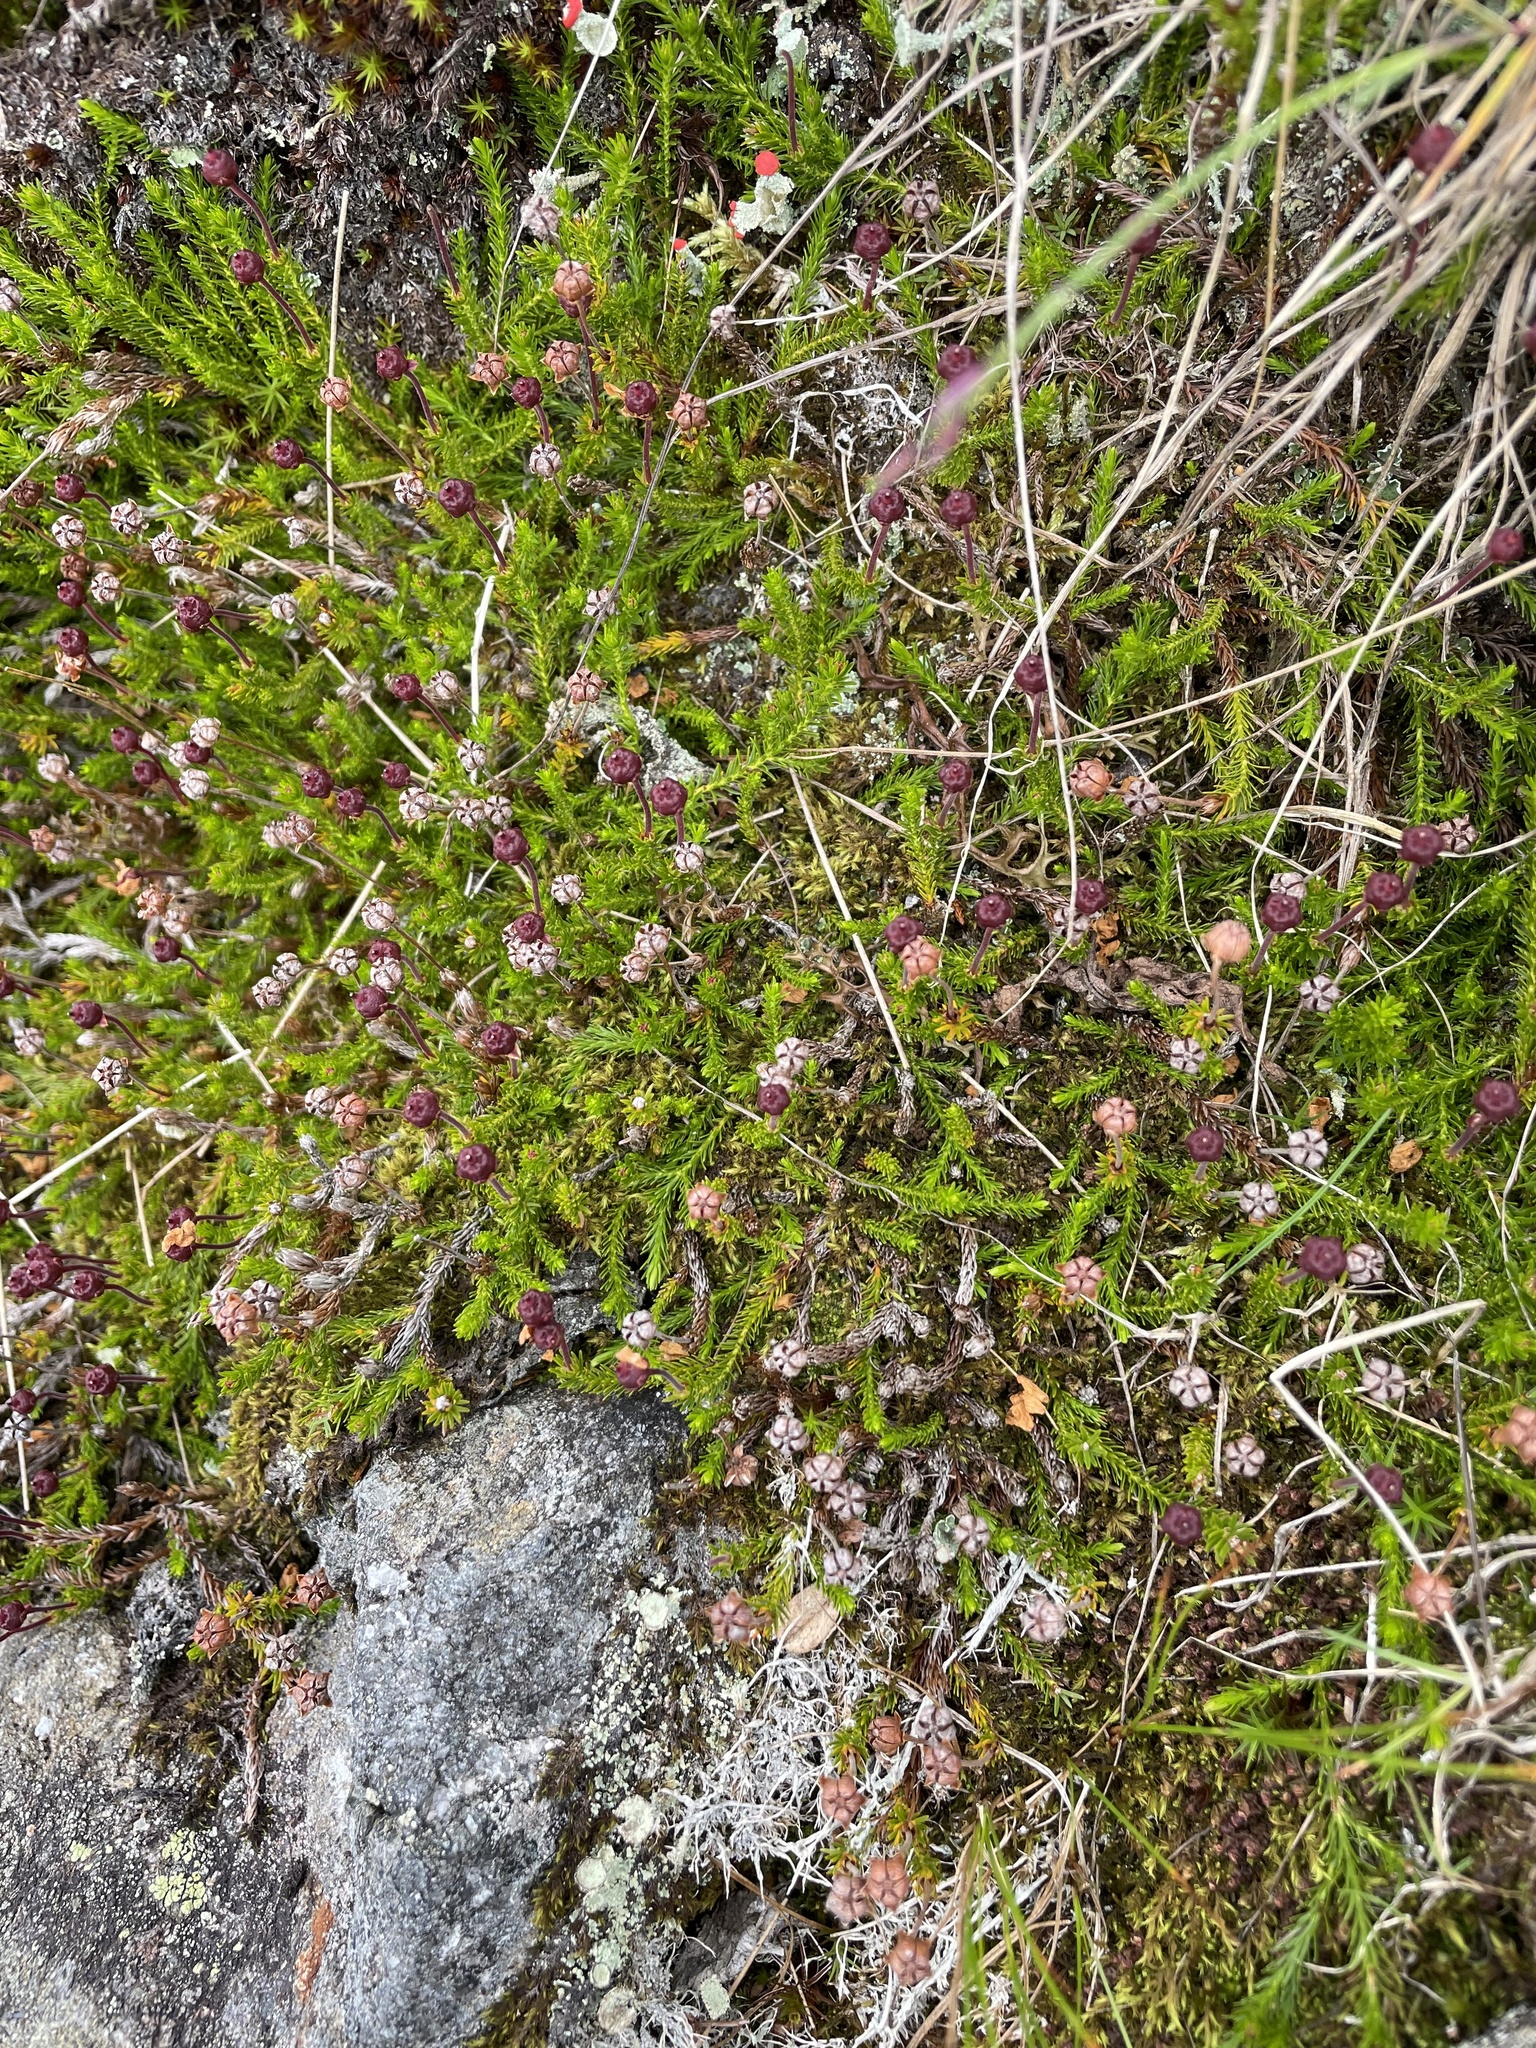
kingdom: Plantae
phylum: Tracheophyta
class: Magnoliopsida
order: Ericales
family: Ericaceae
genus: Harrimanella
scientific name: Harrimanella hypnoides
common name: Moss bell heather
